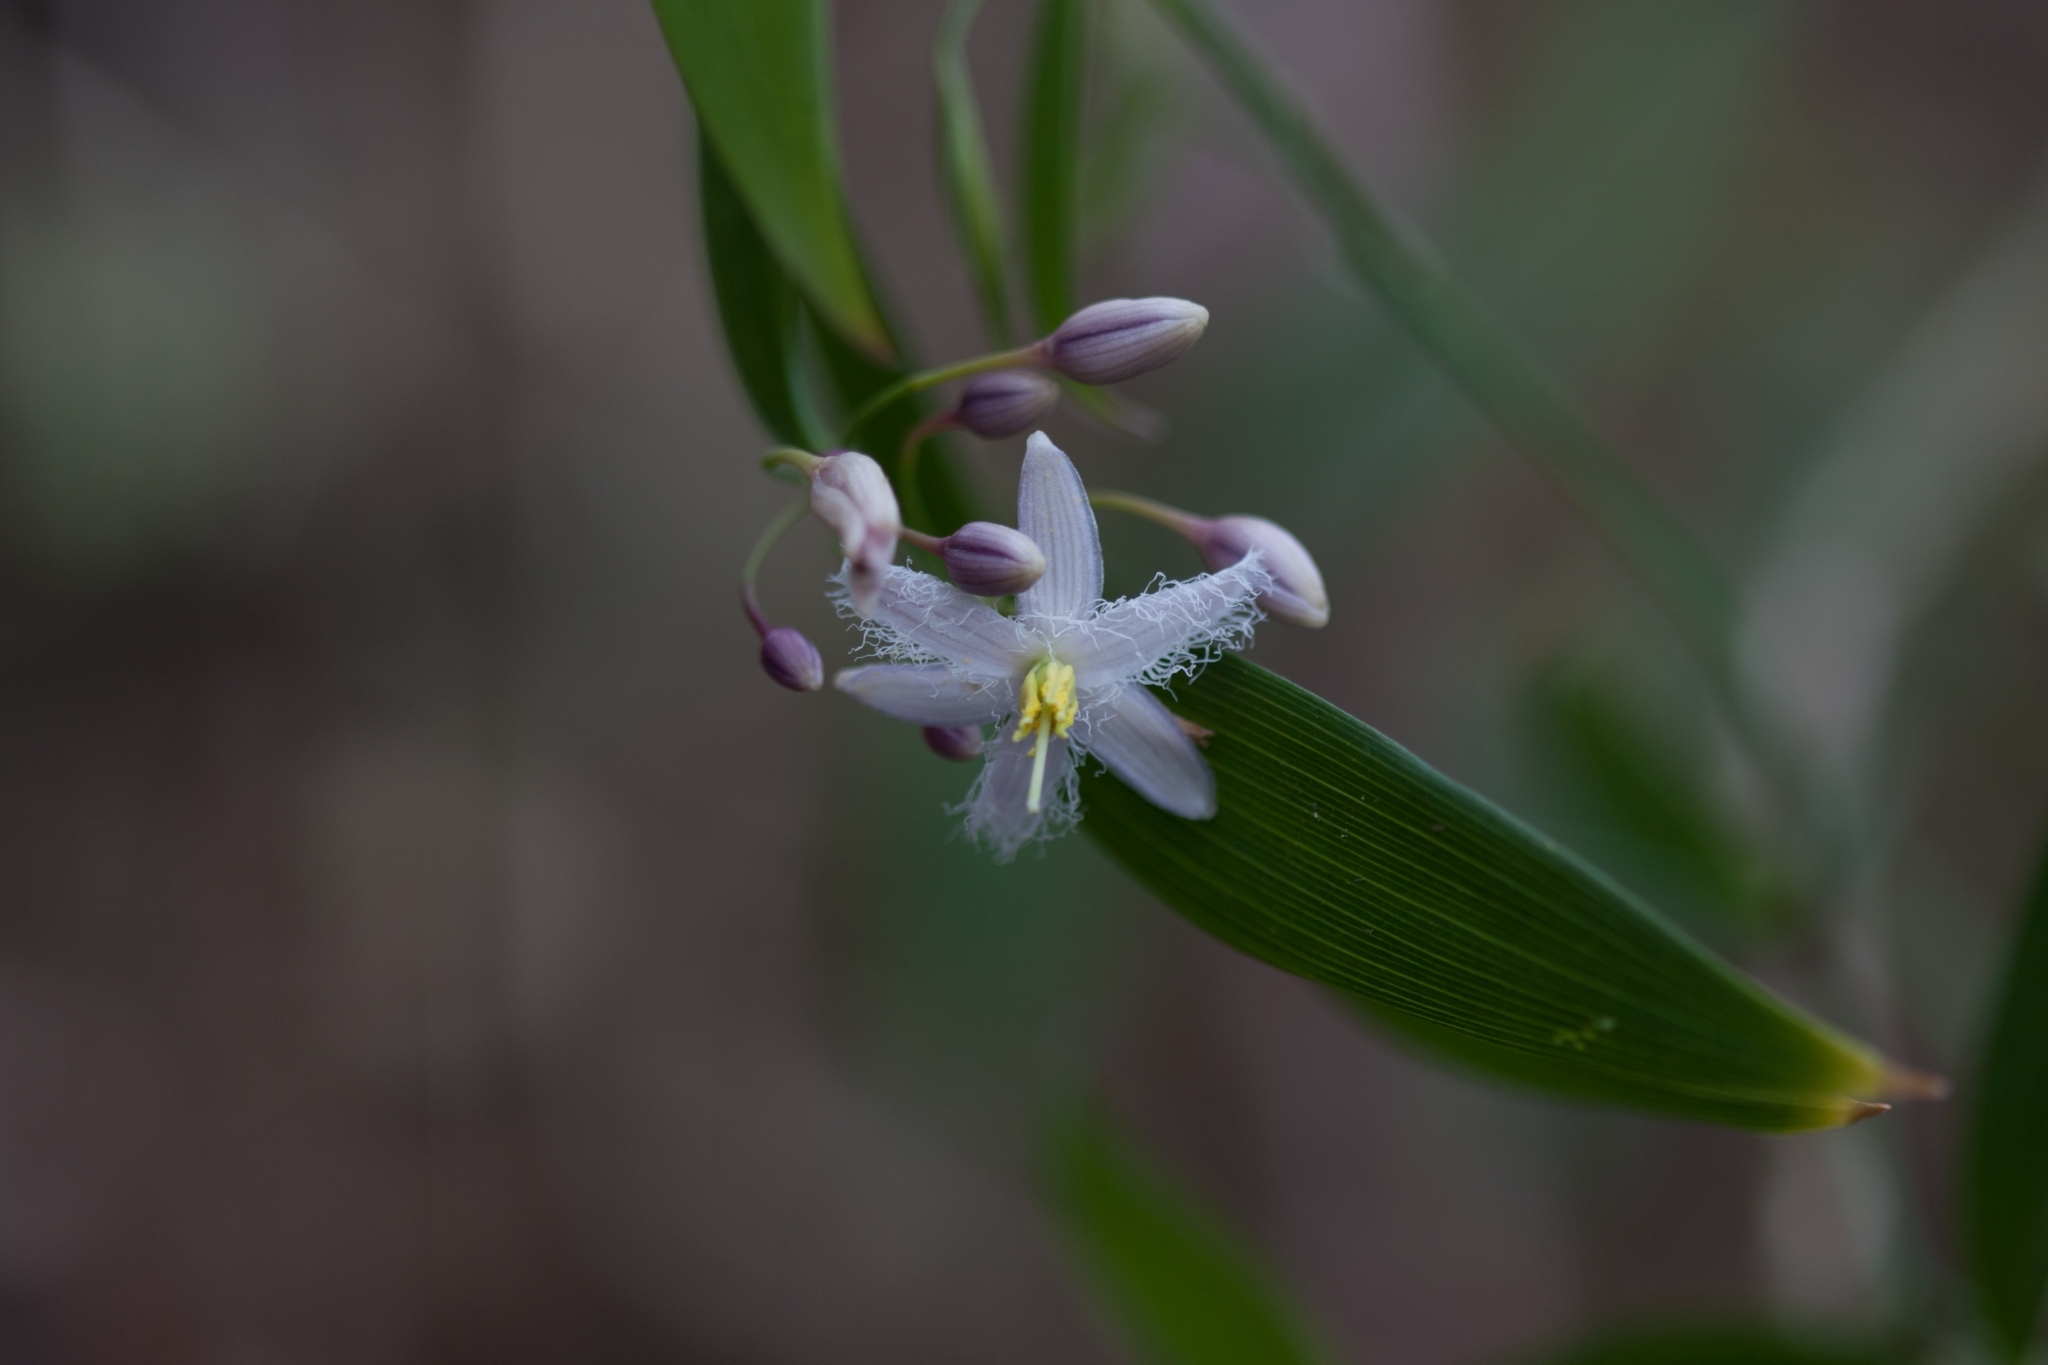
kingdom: Plantae
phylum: Tracheophyta
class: Liliopsida
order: Asparagales
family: Asparagaceae
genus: Eustrephus
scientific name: Eustrephus latifolius
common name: Orangevine
